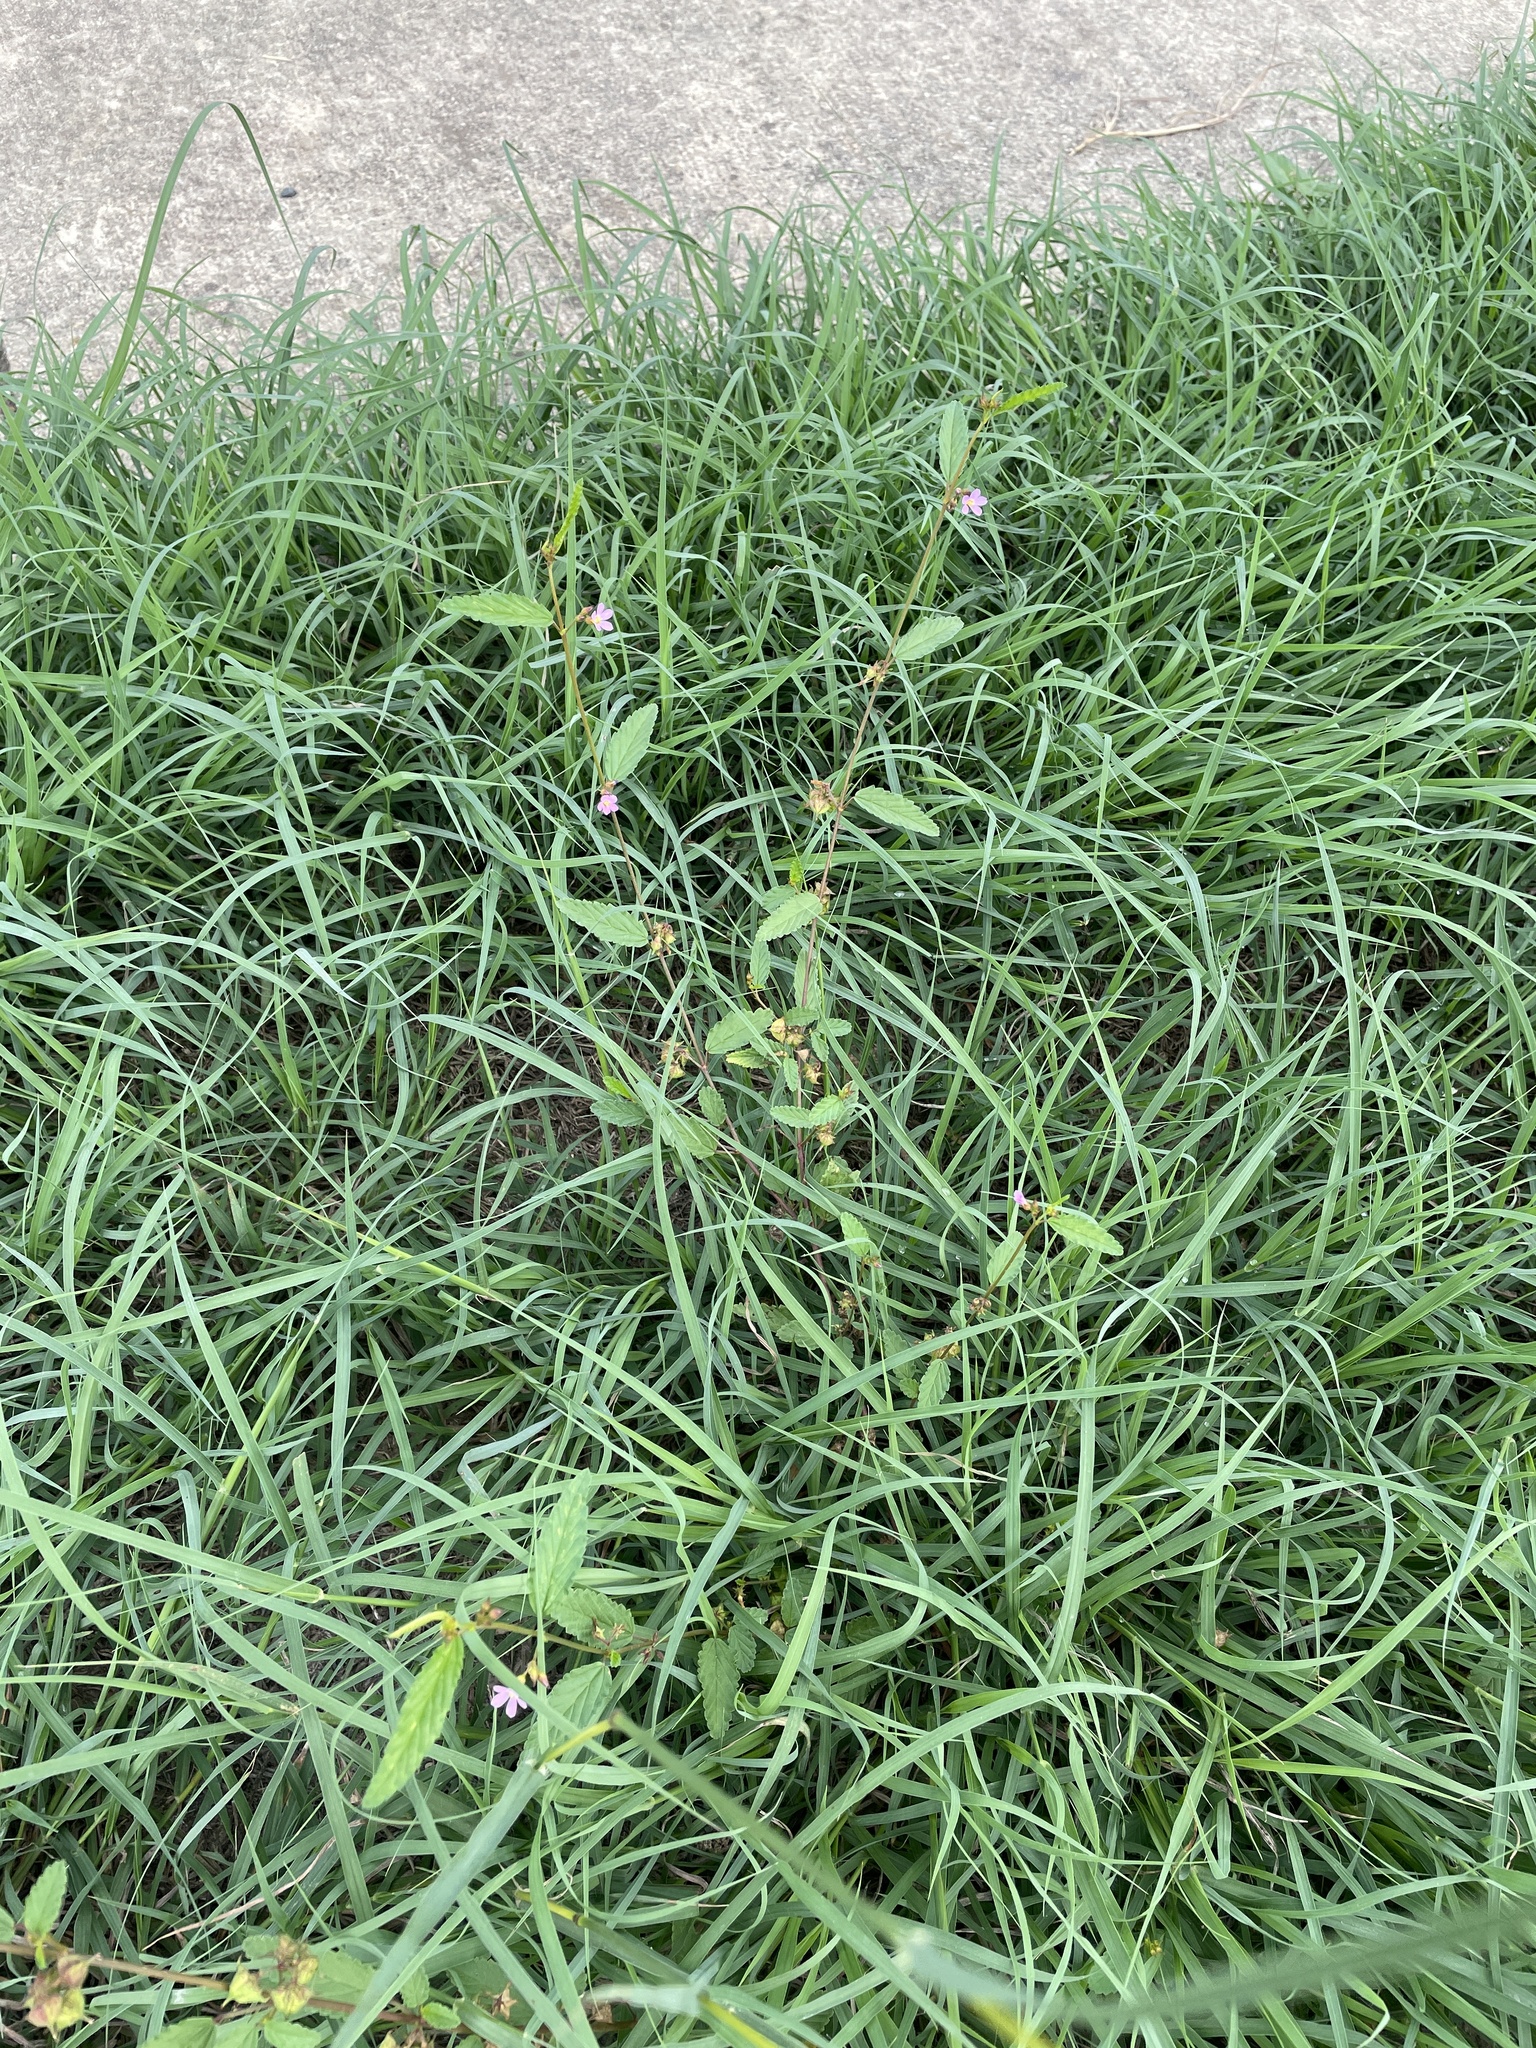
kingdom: Plantae
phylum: Tracheophyta
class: Magnoliopsida
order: Malvales
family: Malvaceae
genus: Melochia
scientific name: Melochia pyramidata
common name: Pyramidflower
